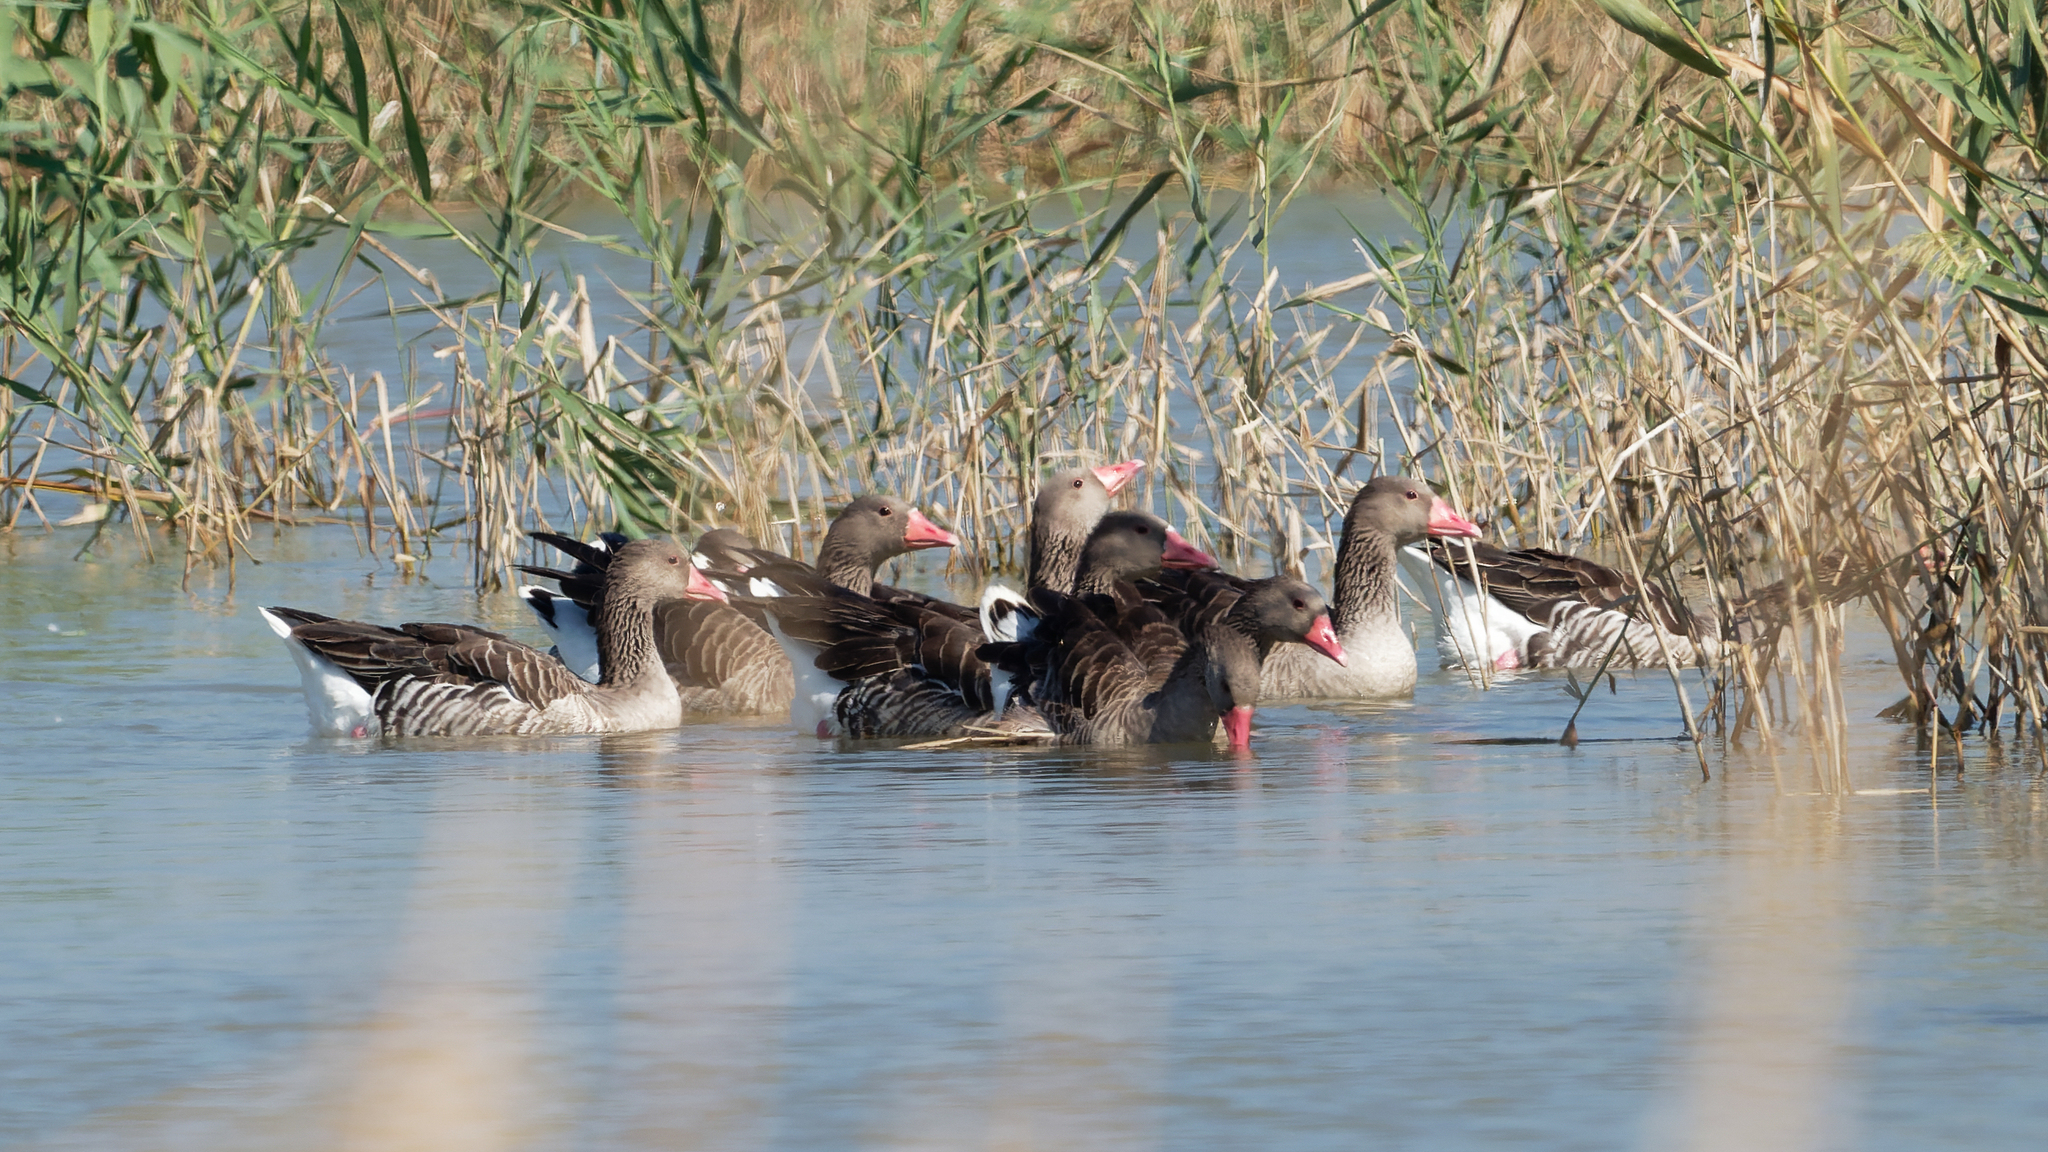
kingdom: Animalia
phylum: Chordata
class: Aves
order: Anseriformes
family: Anatidae
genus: Anser
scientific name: Anser anser
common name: Greylag goose
